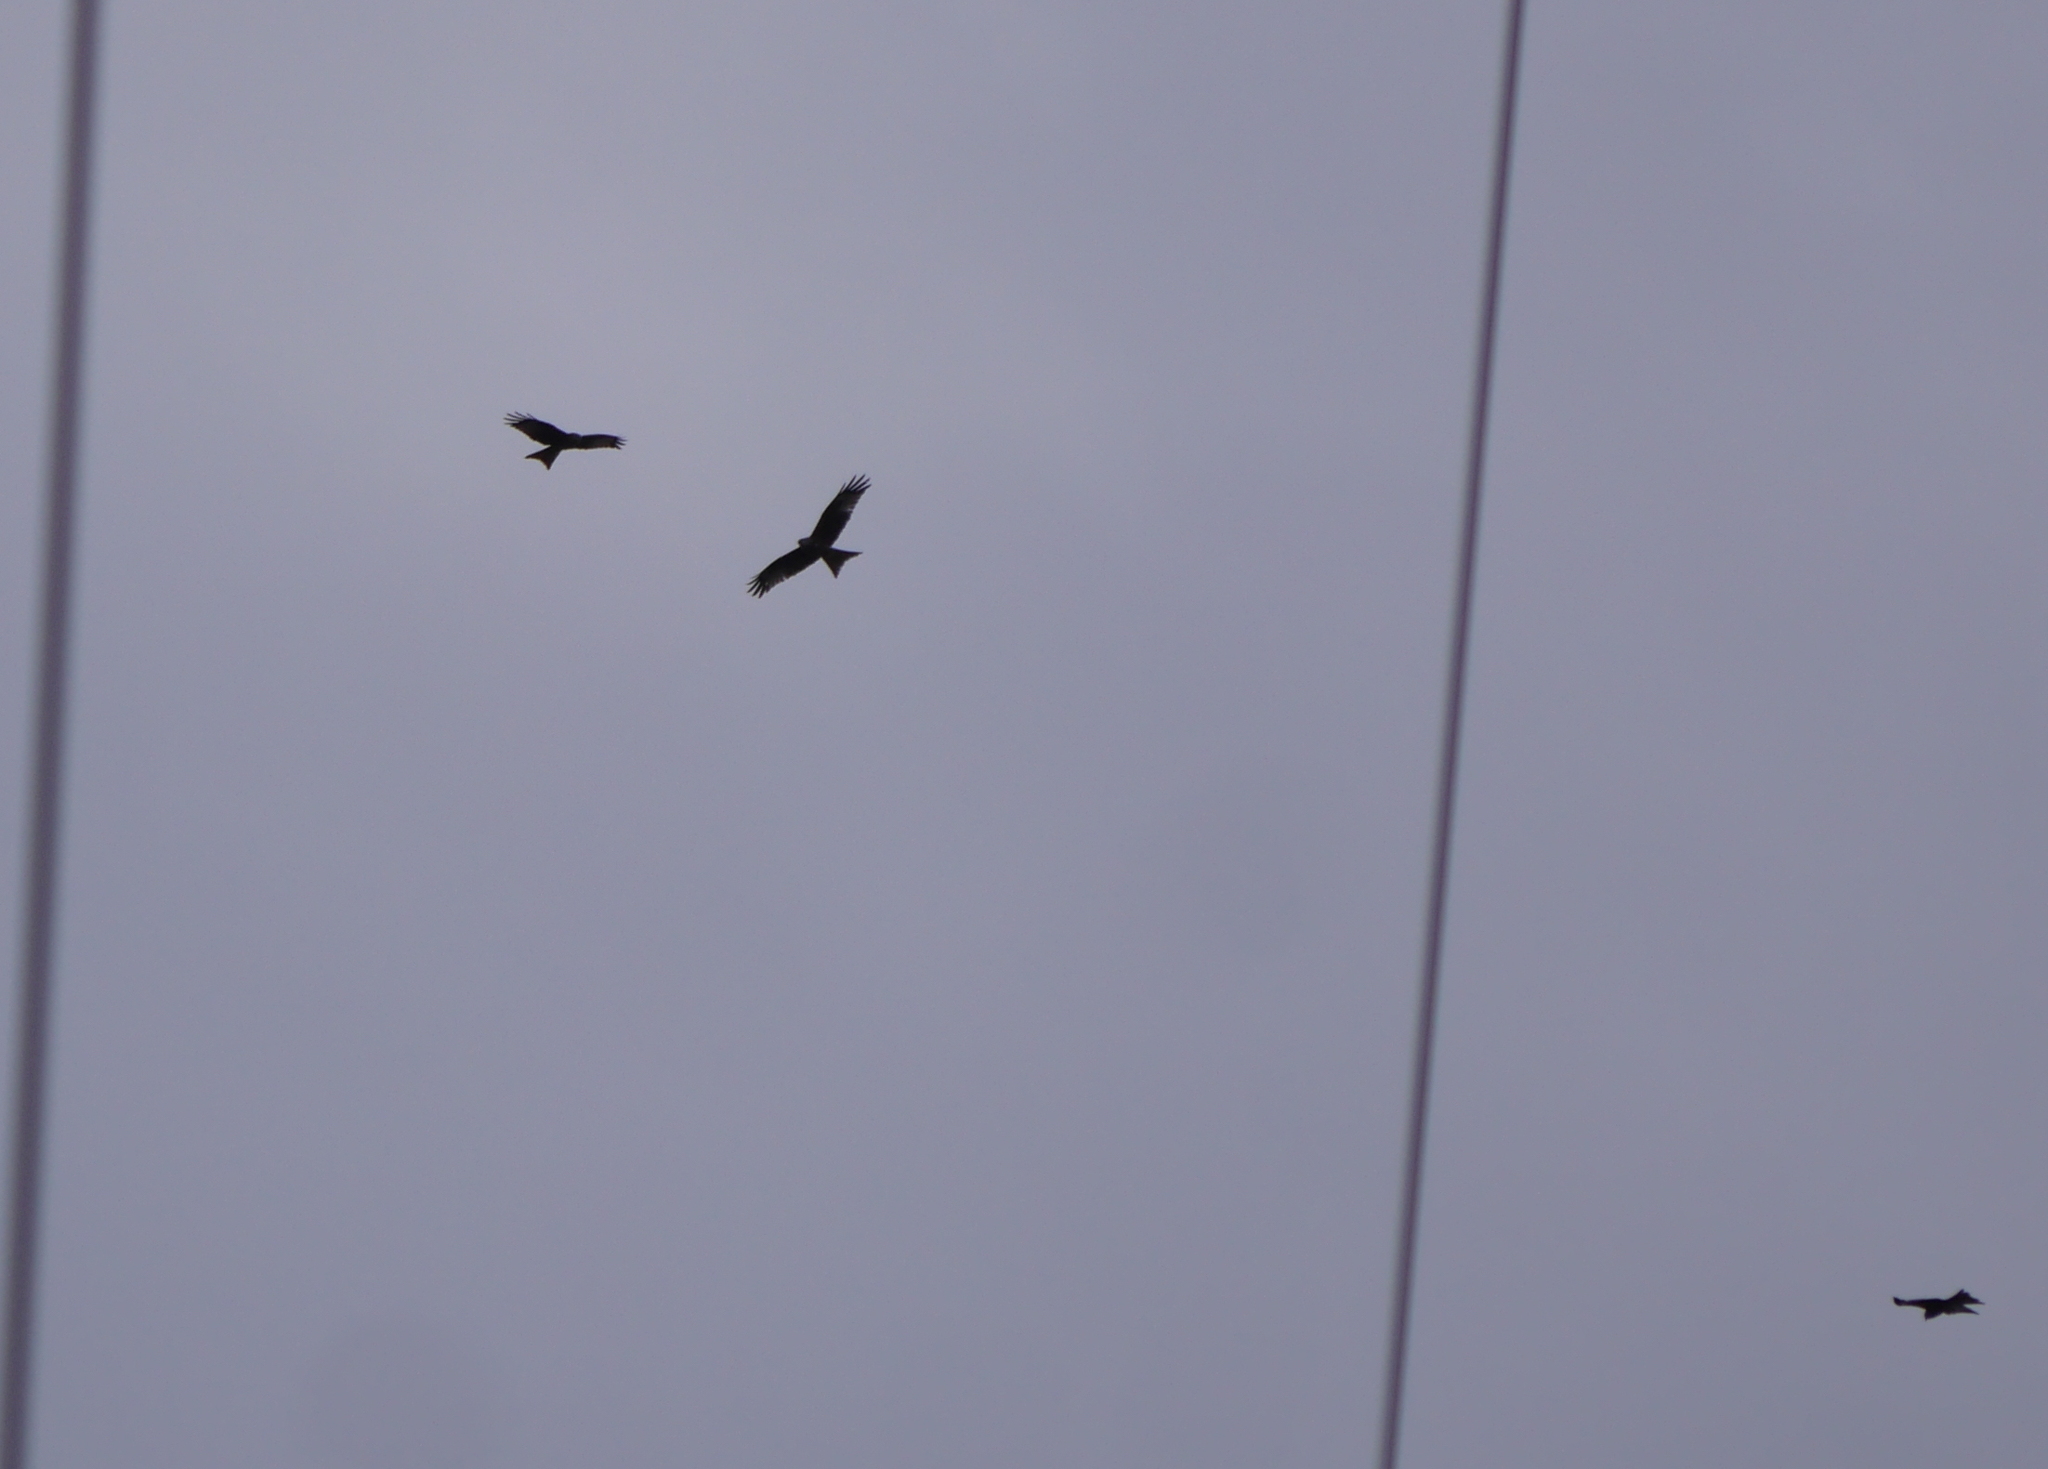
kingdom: Animalia
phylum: Chordata
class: Aves
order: Accipitriformes
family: Accipitridae
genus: Milvus
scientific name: Milvus milvus
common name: Red kite
